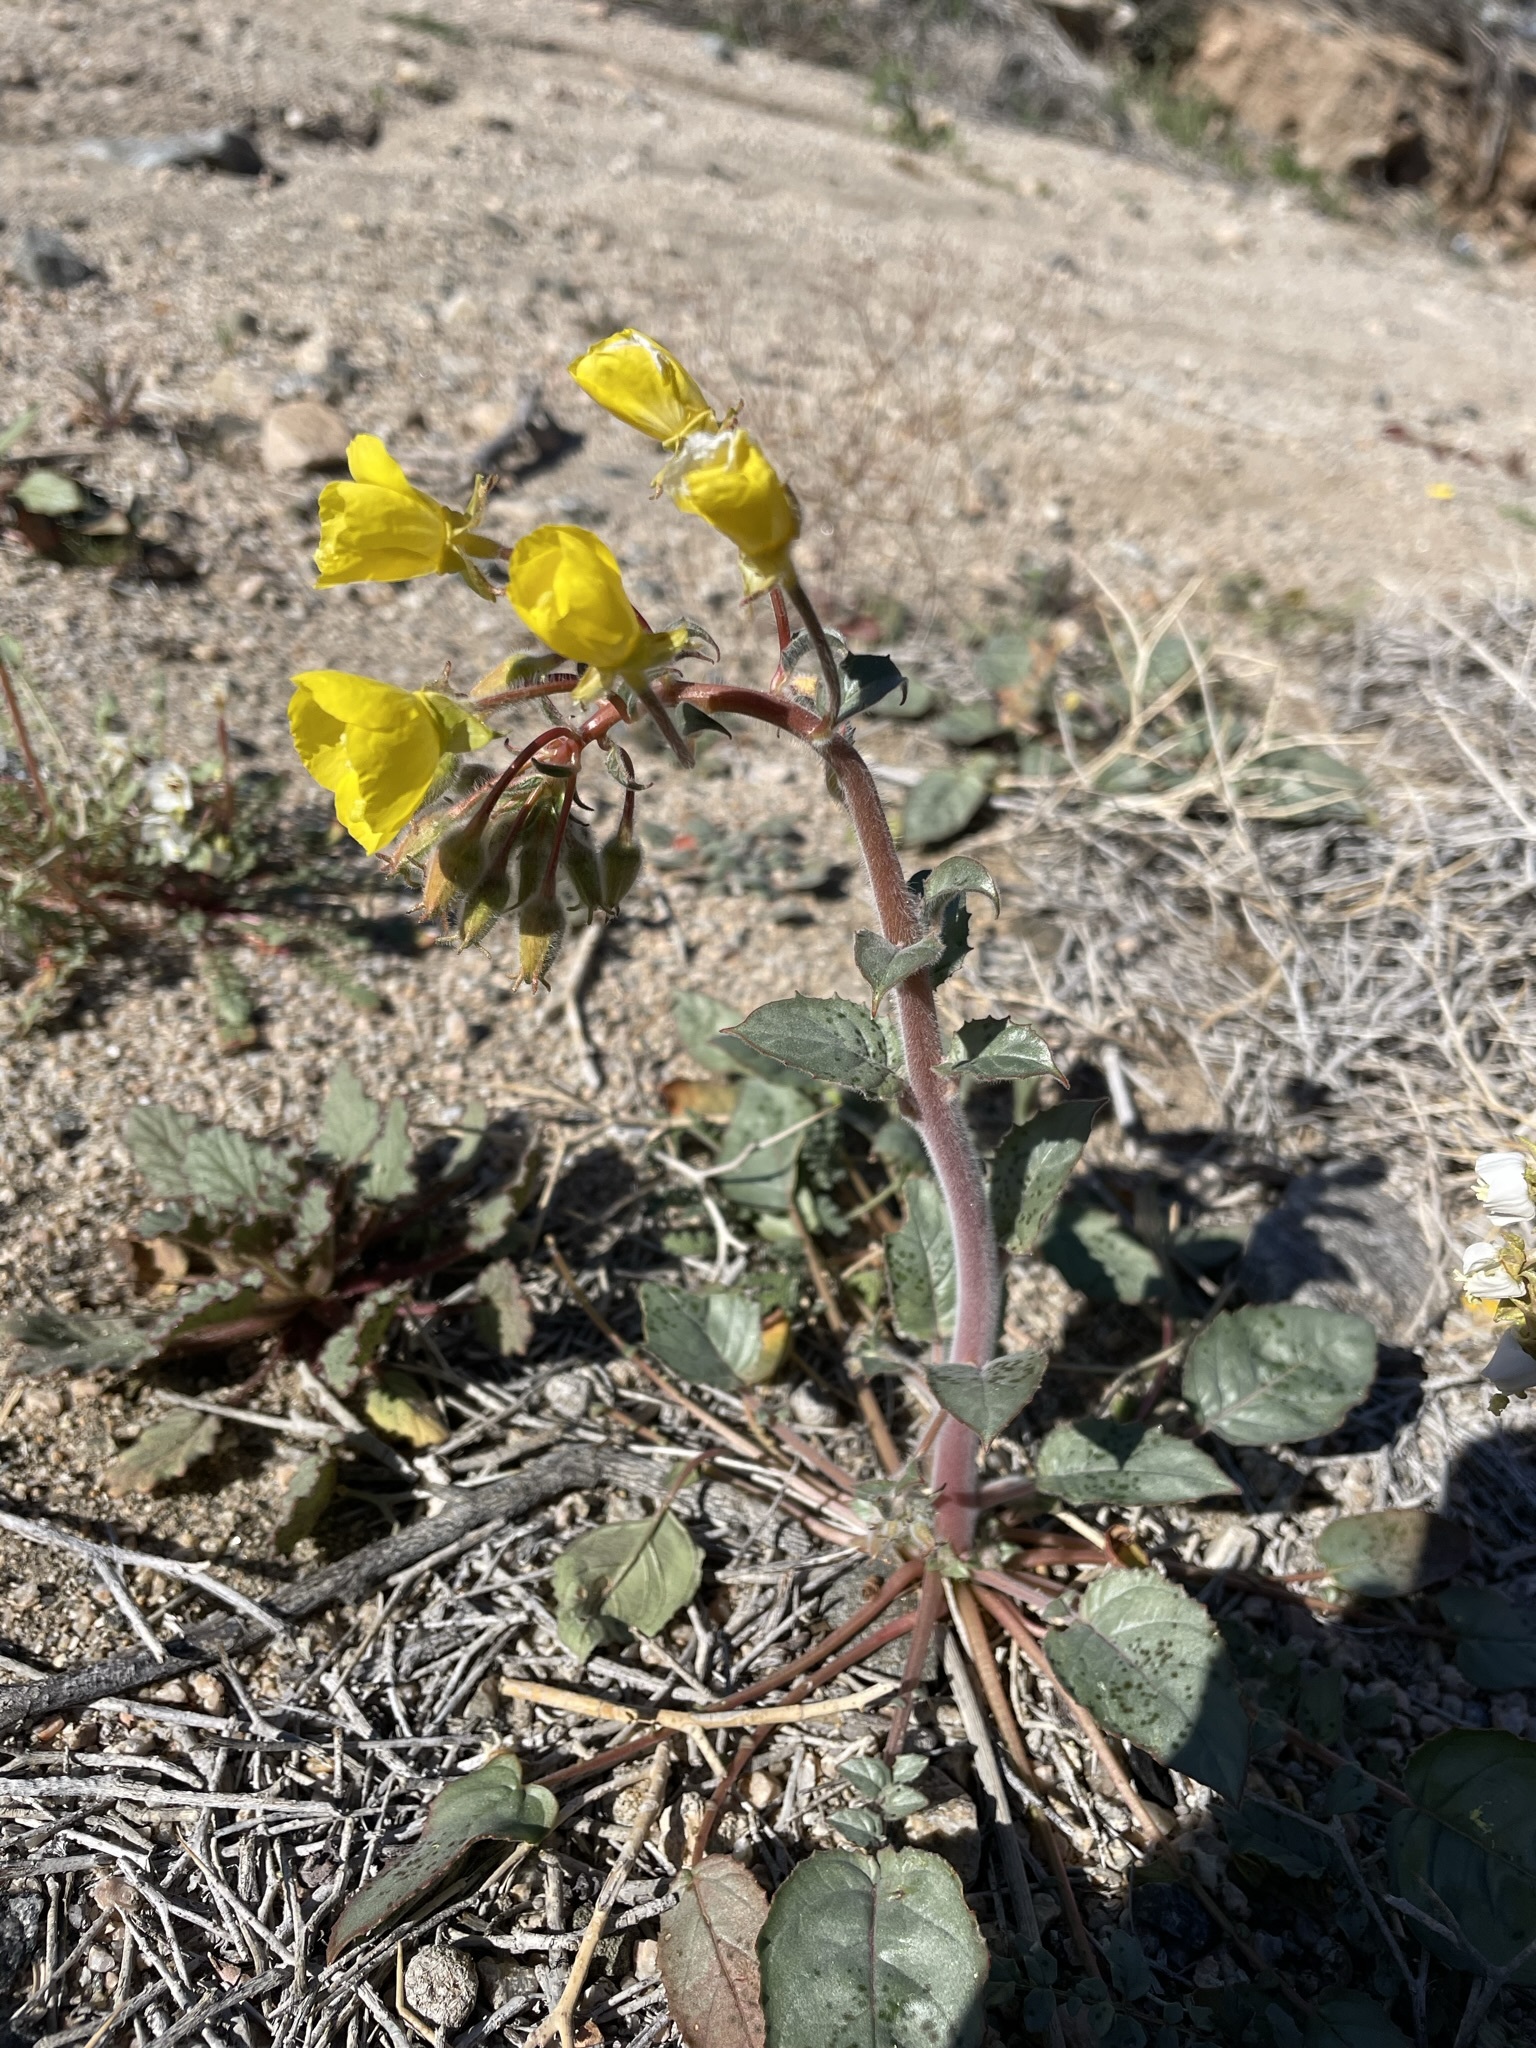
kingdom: Plantae
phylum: Tracheophyta
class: Magnoliopsida
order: Myrtales
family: Onagraceae
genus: Chylismia
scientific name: Chylismia brevipes
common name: Yellow cups
